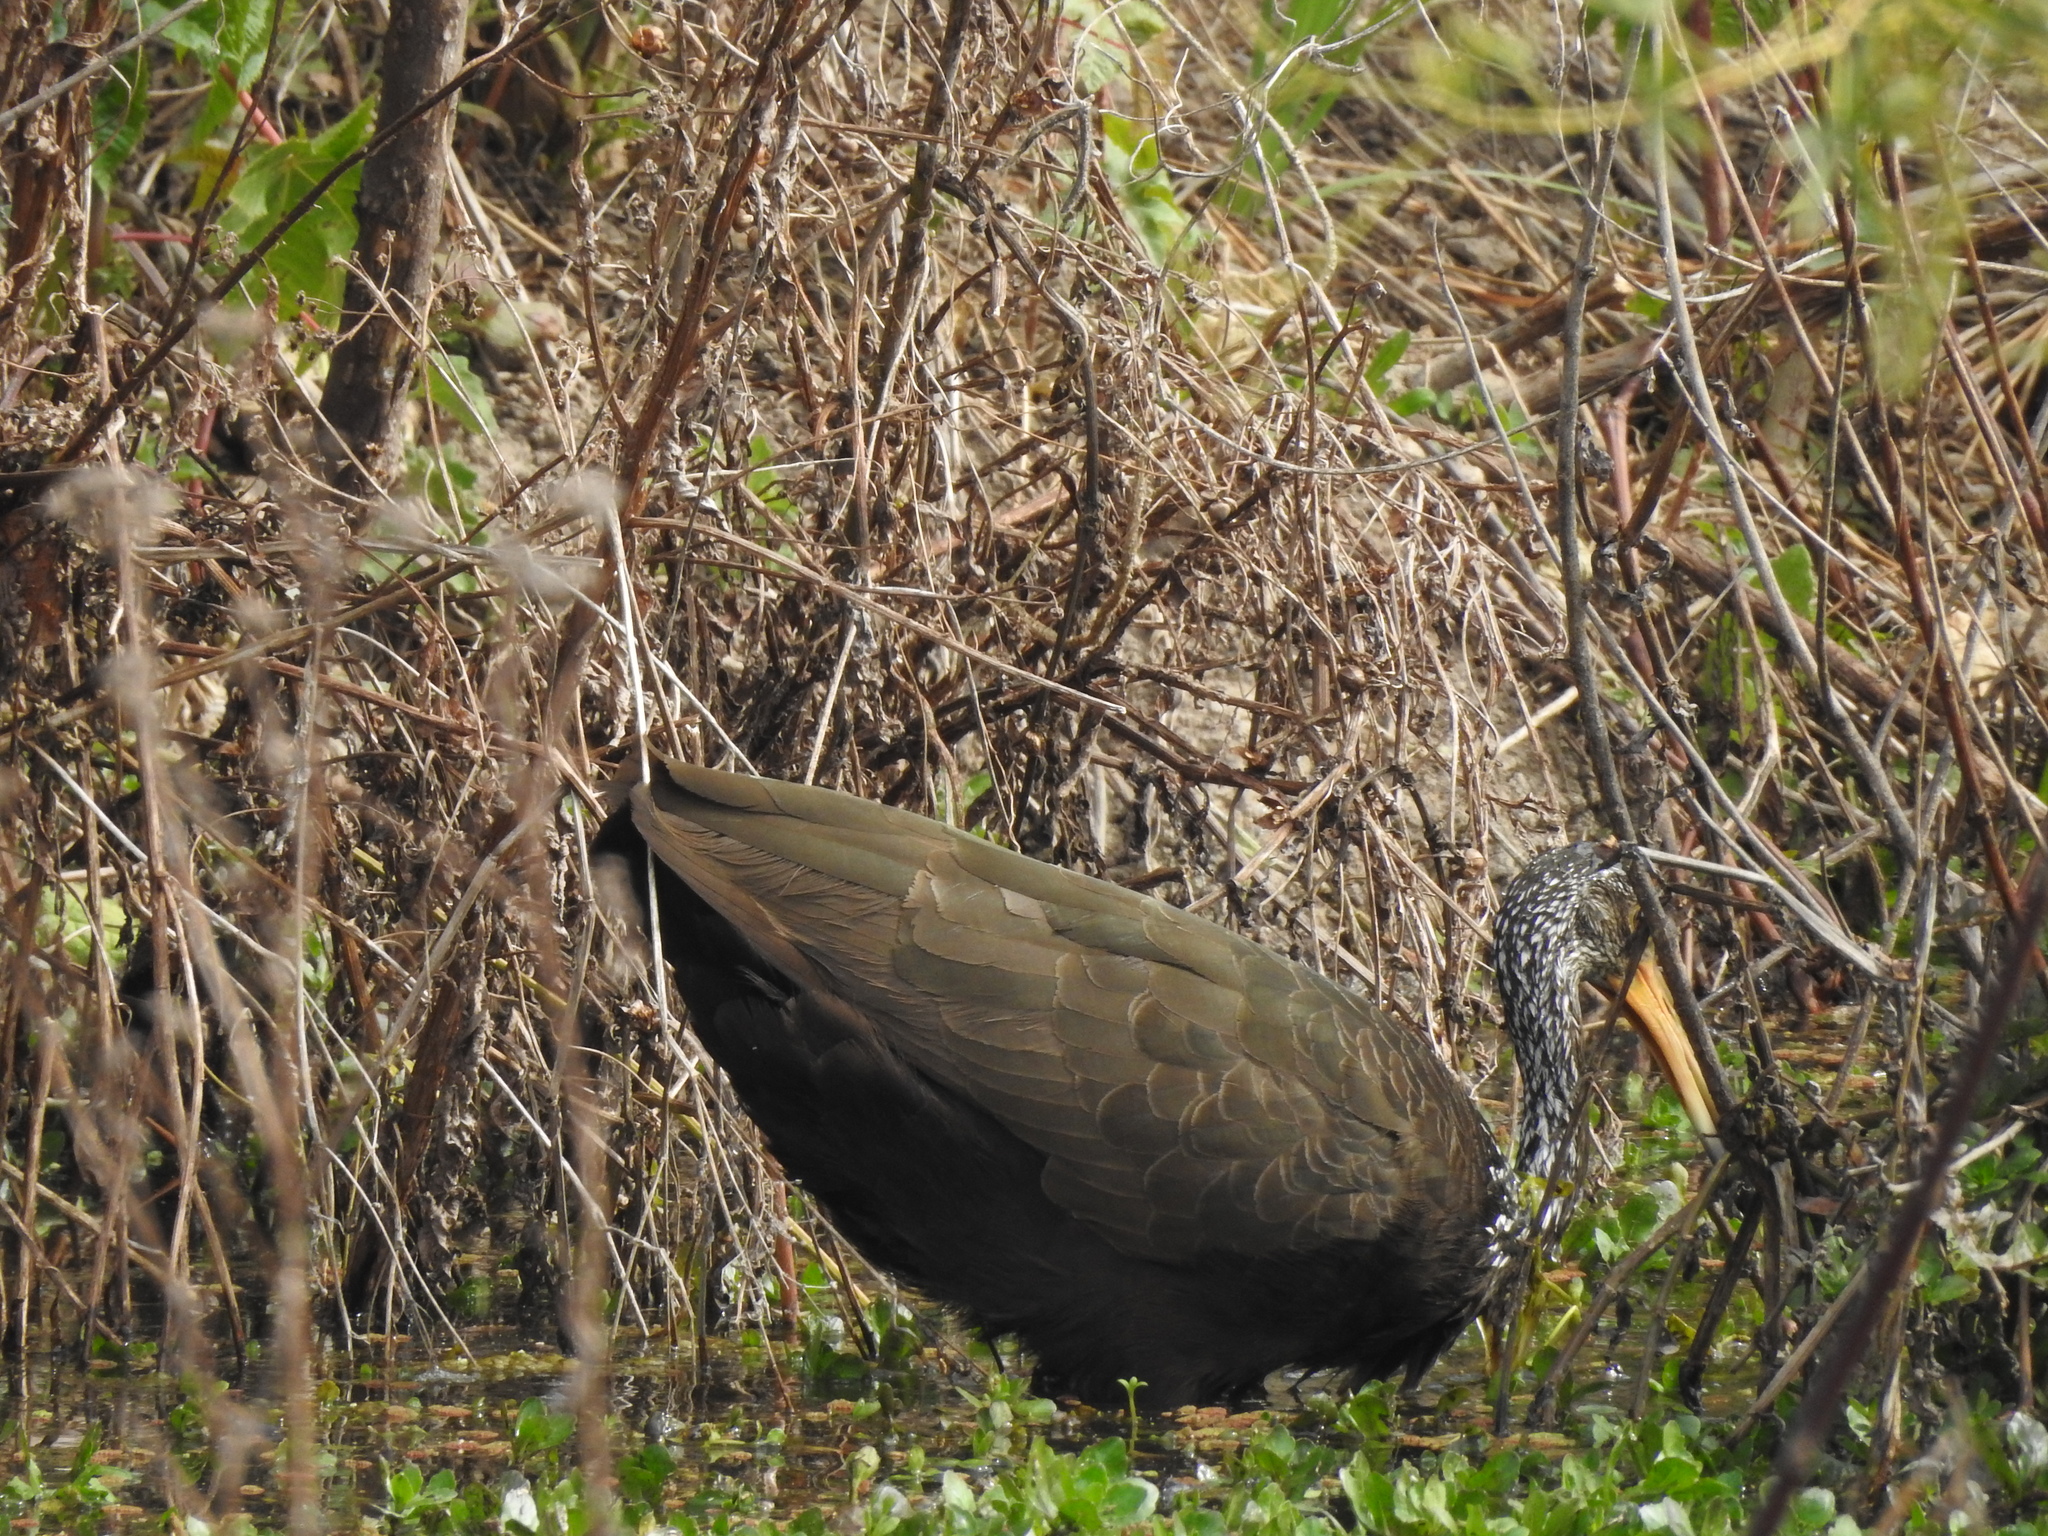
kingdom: Animalia
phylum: Chordata
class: Aves
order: Gruiformes
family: Aramidae
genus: Aramus
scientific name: Aramus guarauna
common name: Limpkin
